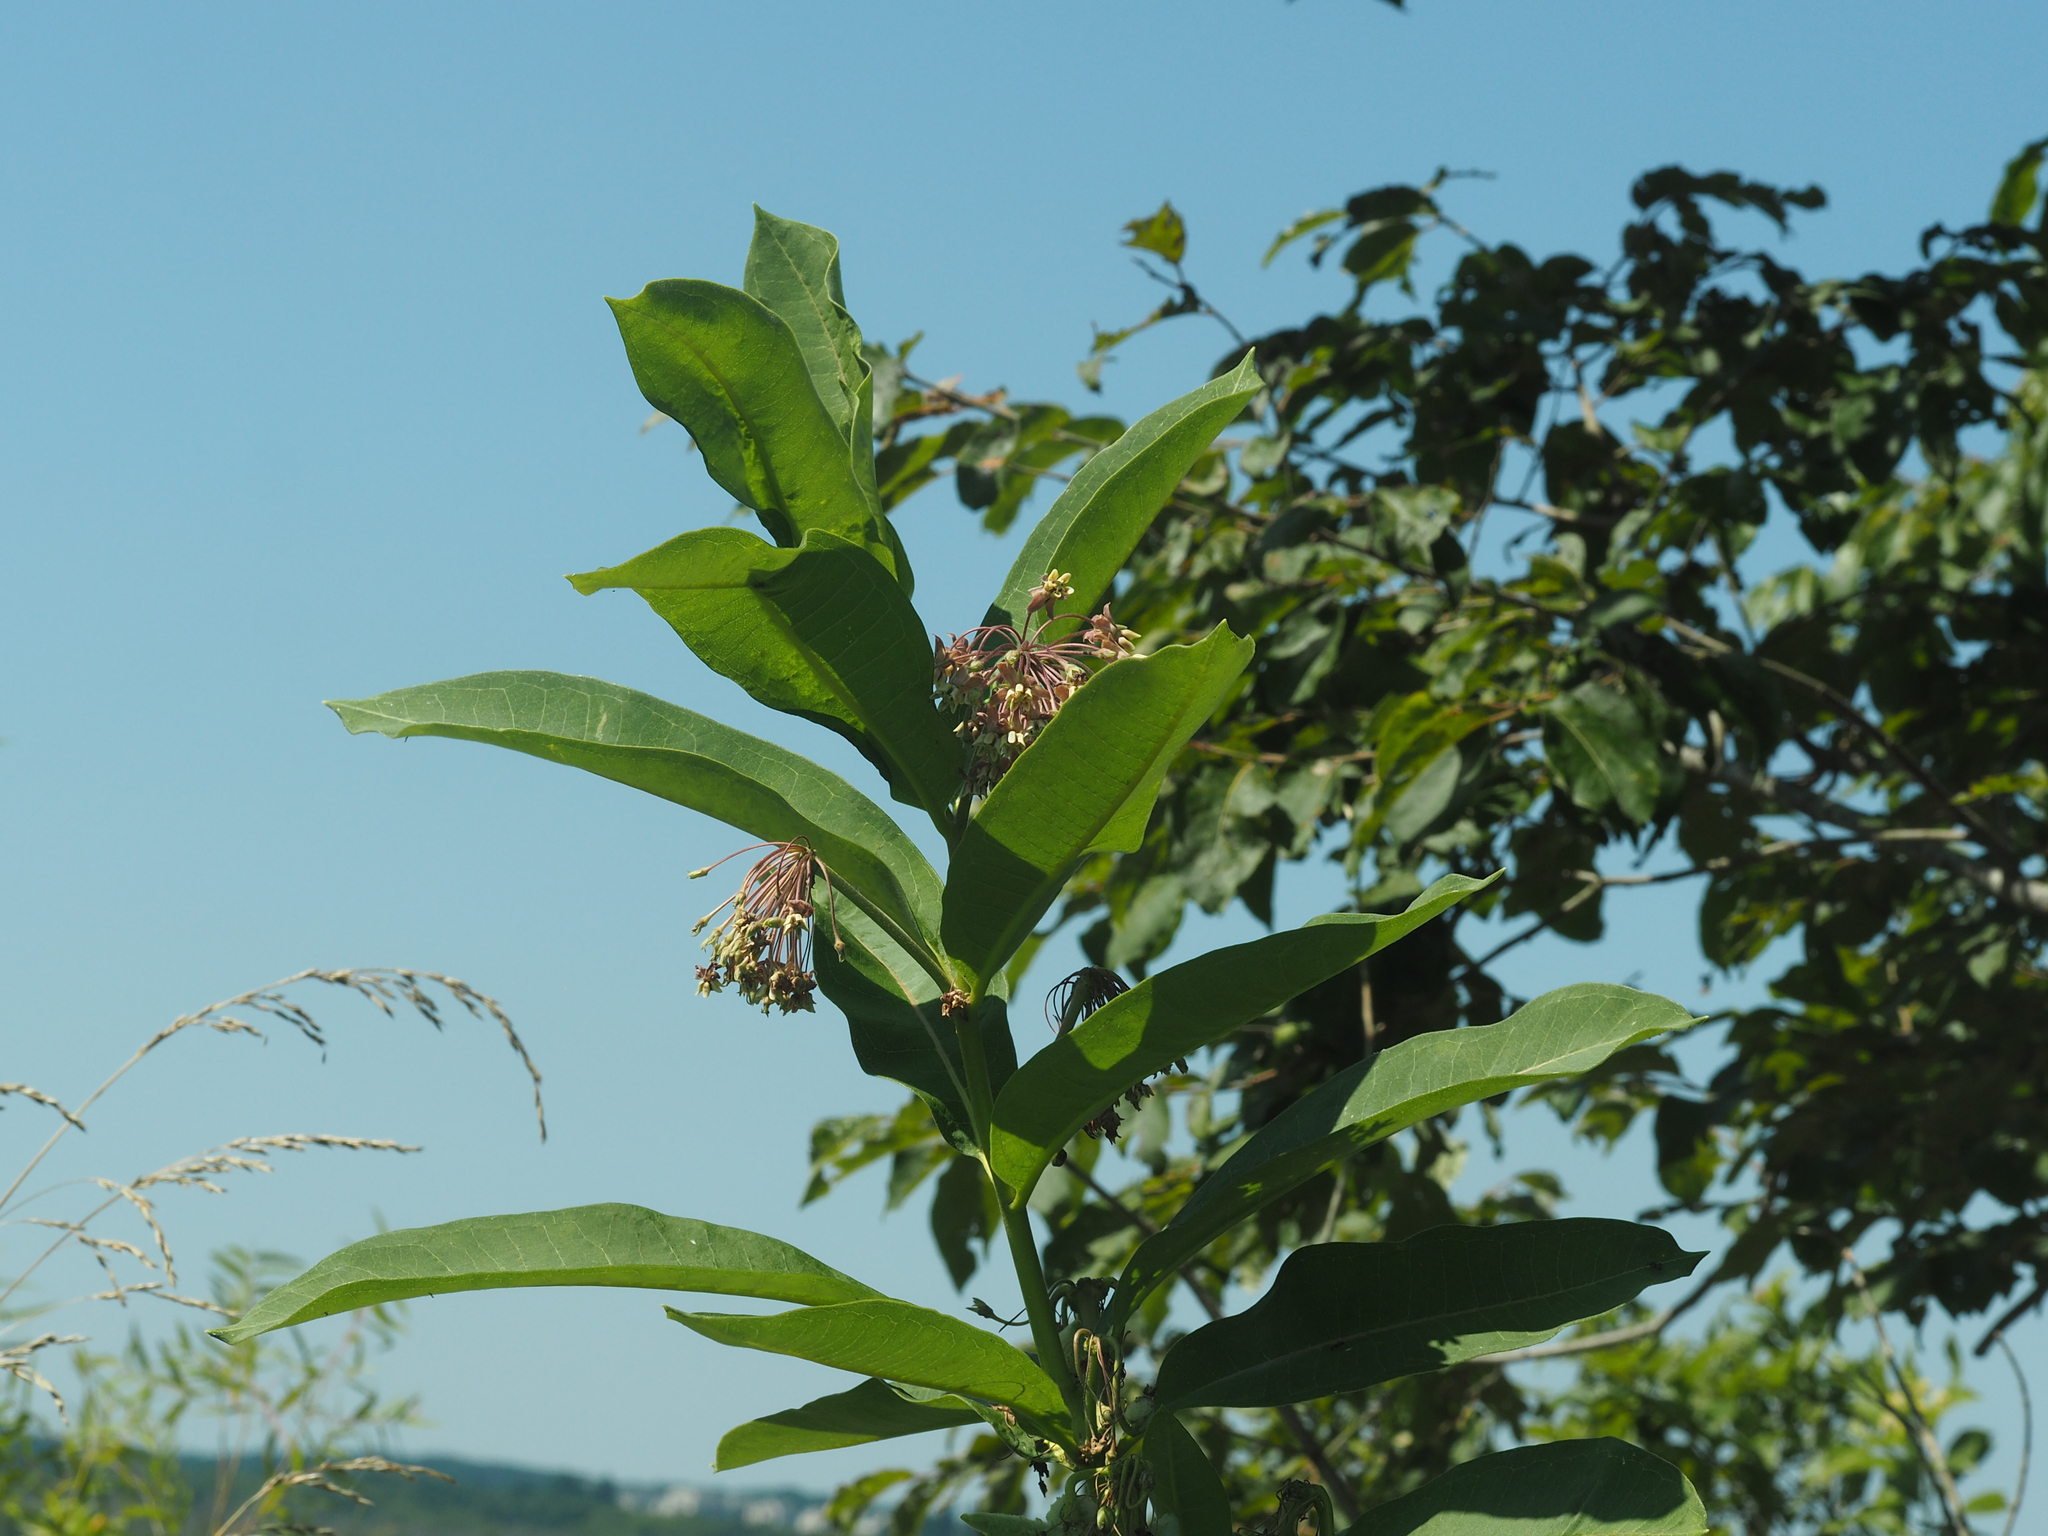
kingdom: Plantae
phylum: Tracheophyta
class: Magnoliopsida
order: Gentianales
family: Apocynaceae
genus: Asclepias
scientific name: Asclepias syriaca
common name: Common milkweed
